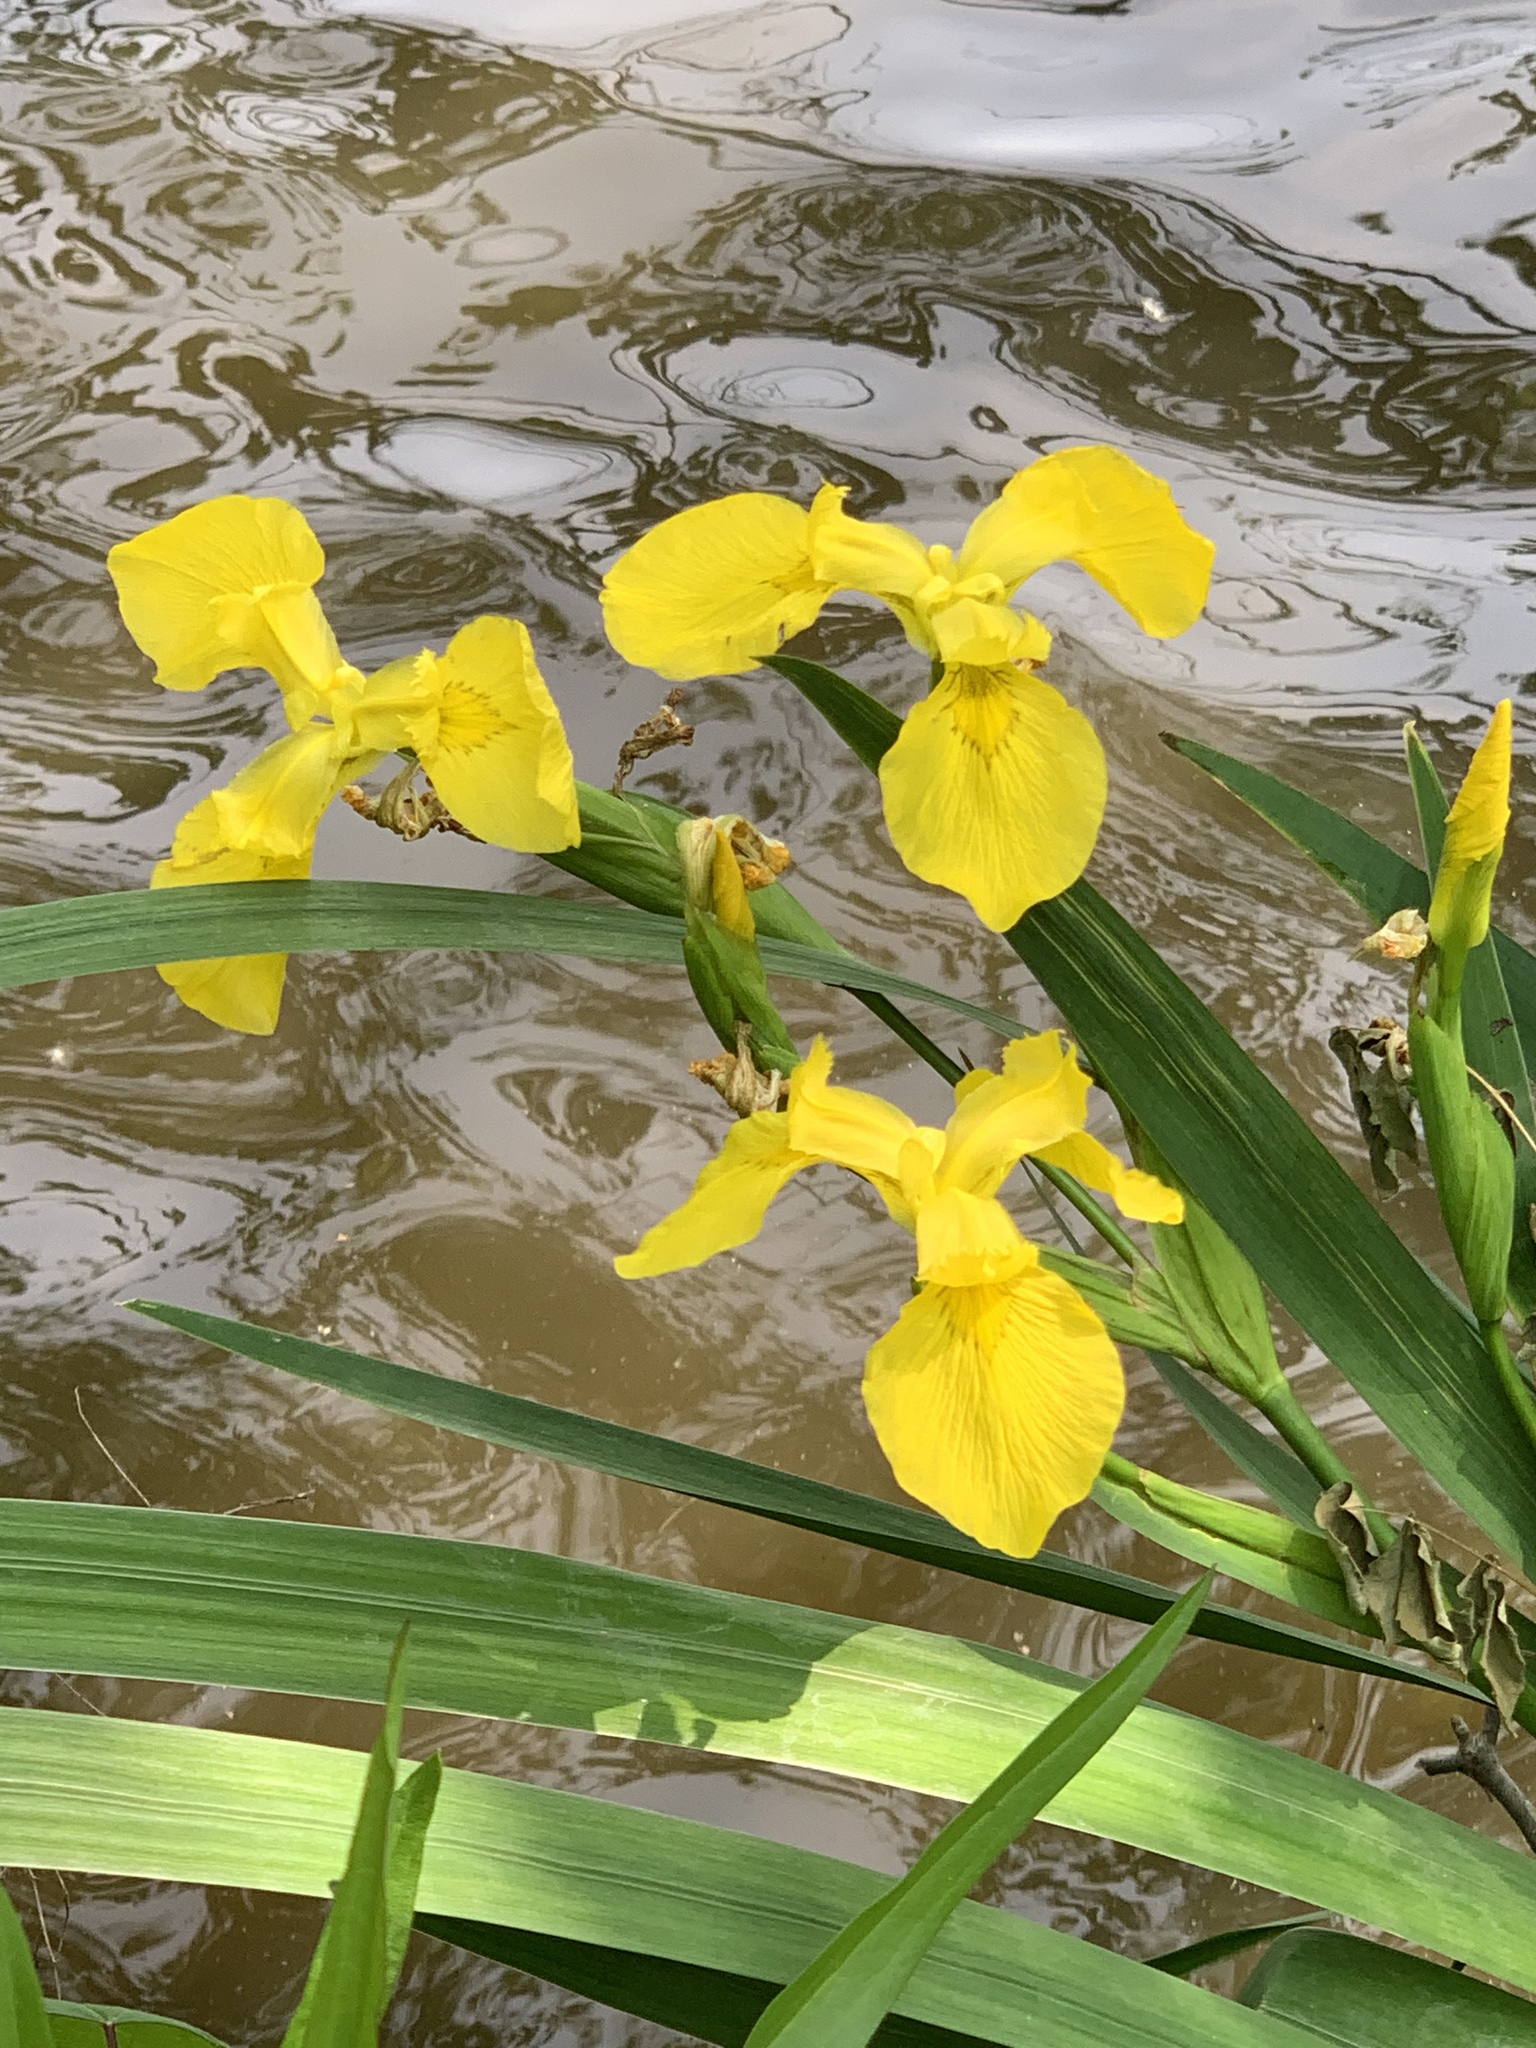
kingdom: Plantae
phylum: Tracheophyta
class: Liliopsida
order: Asparagales
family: Iridaceae
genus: Iris
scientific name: Iris pseudacorus
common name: Yellow flag
